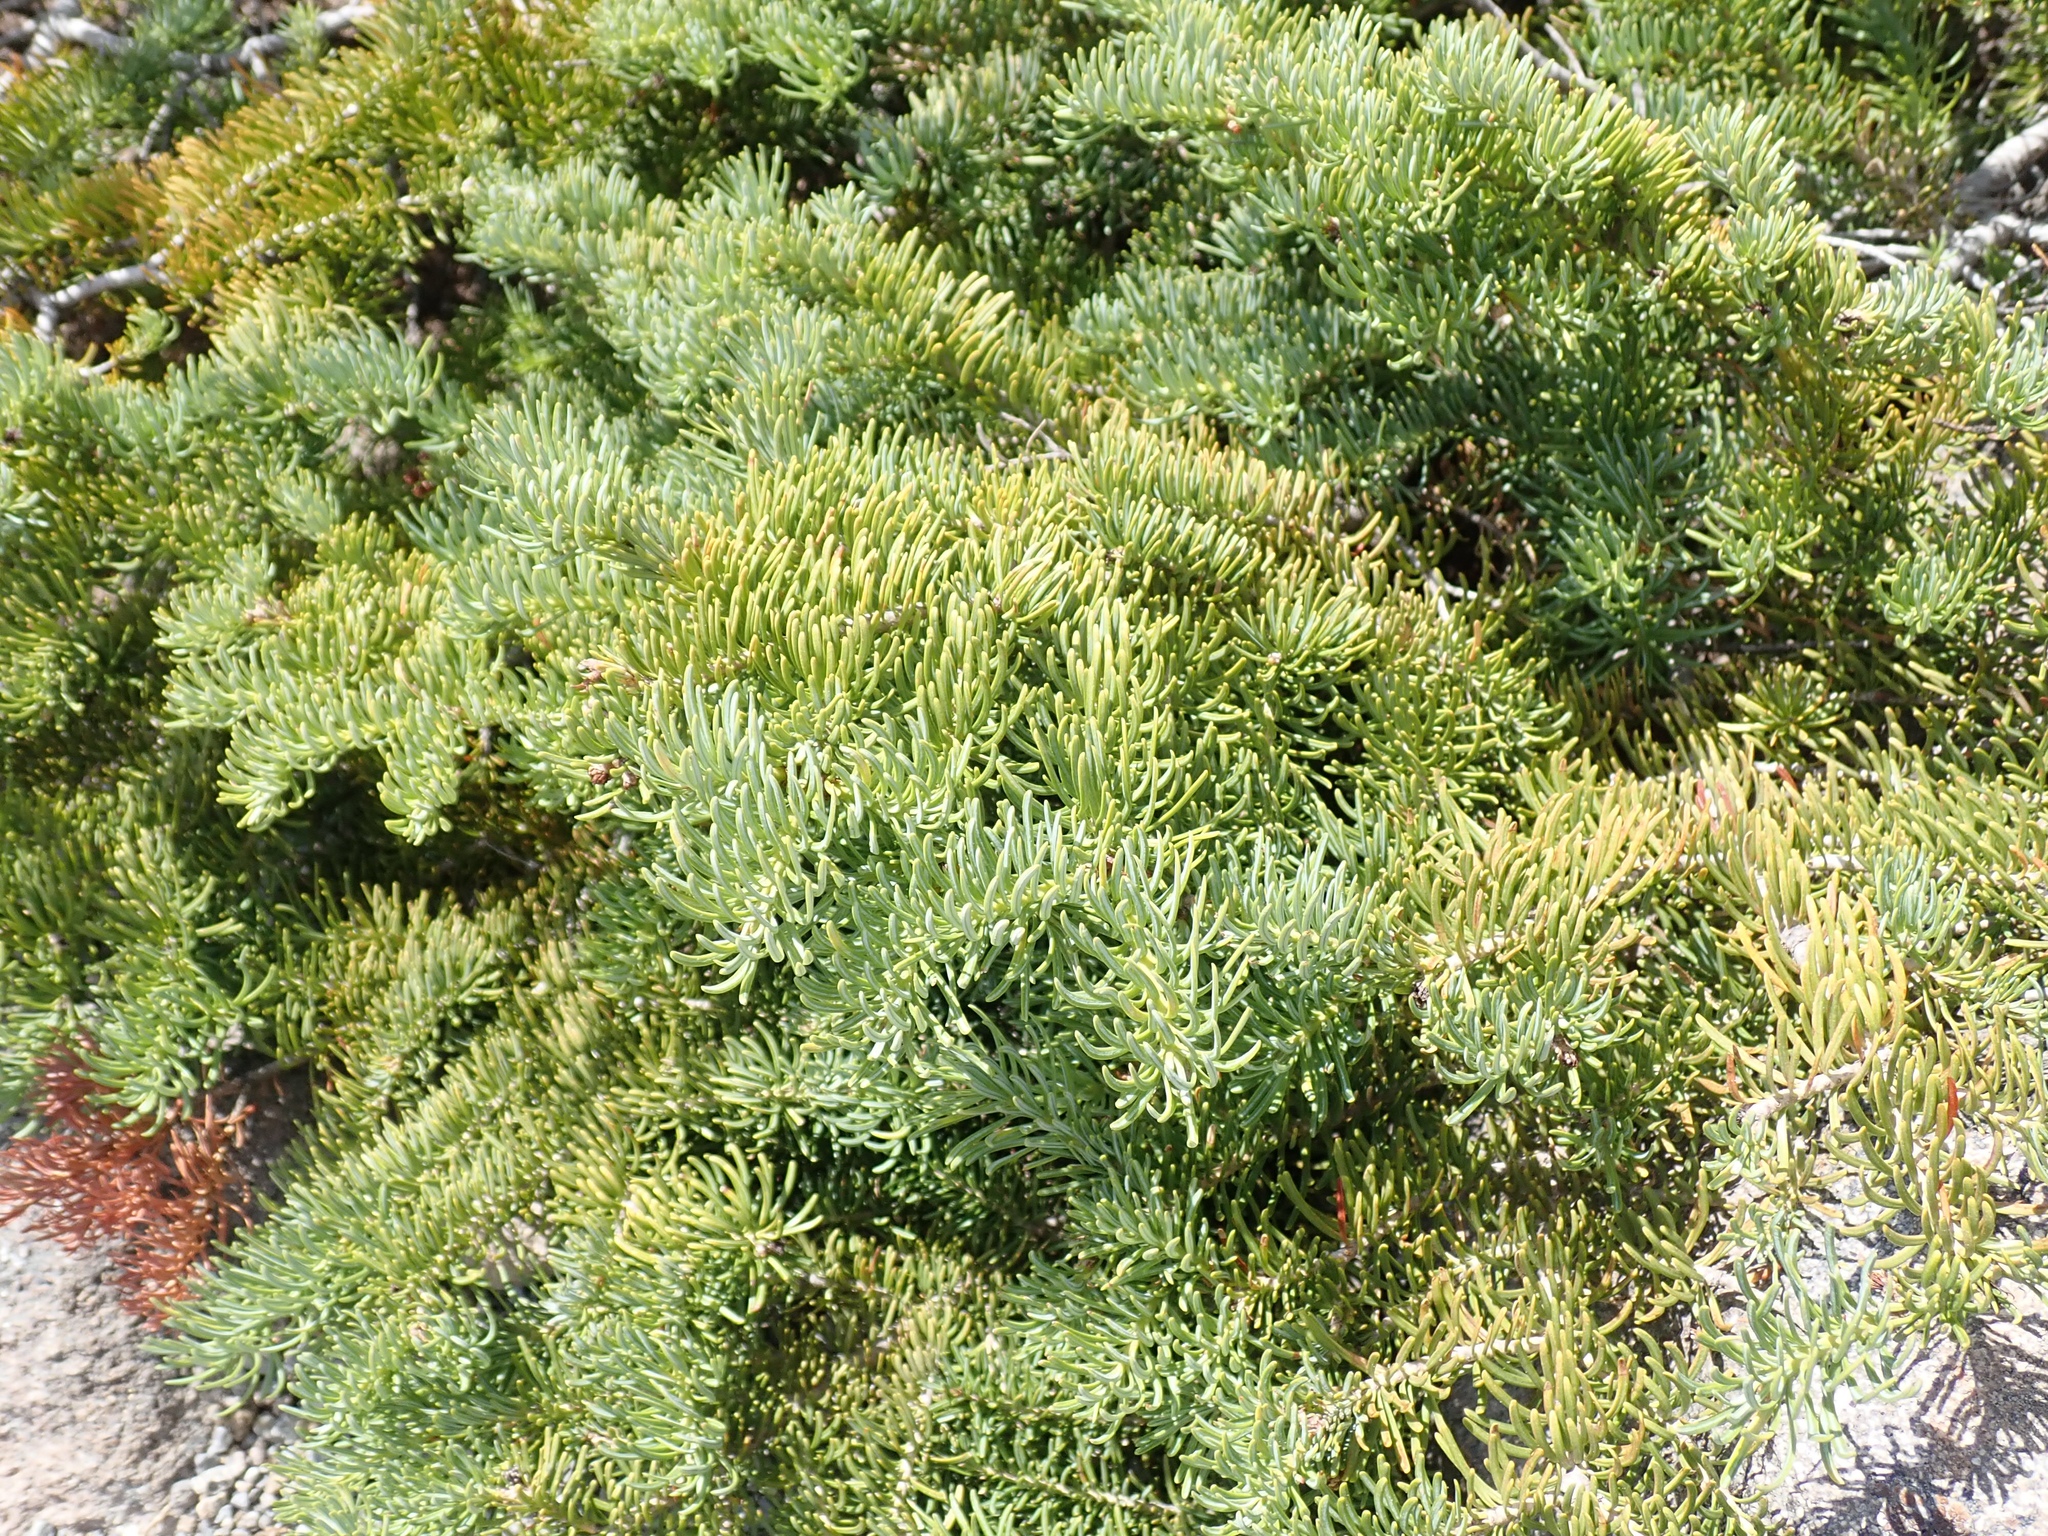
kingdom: Plantae
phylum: Tracheophyta
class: Pinopsida
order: Pinales
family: Pinaceae
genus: Abies
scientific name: Abies lasiocarpa
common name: Subalpine fir
